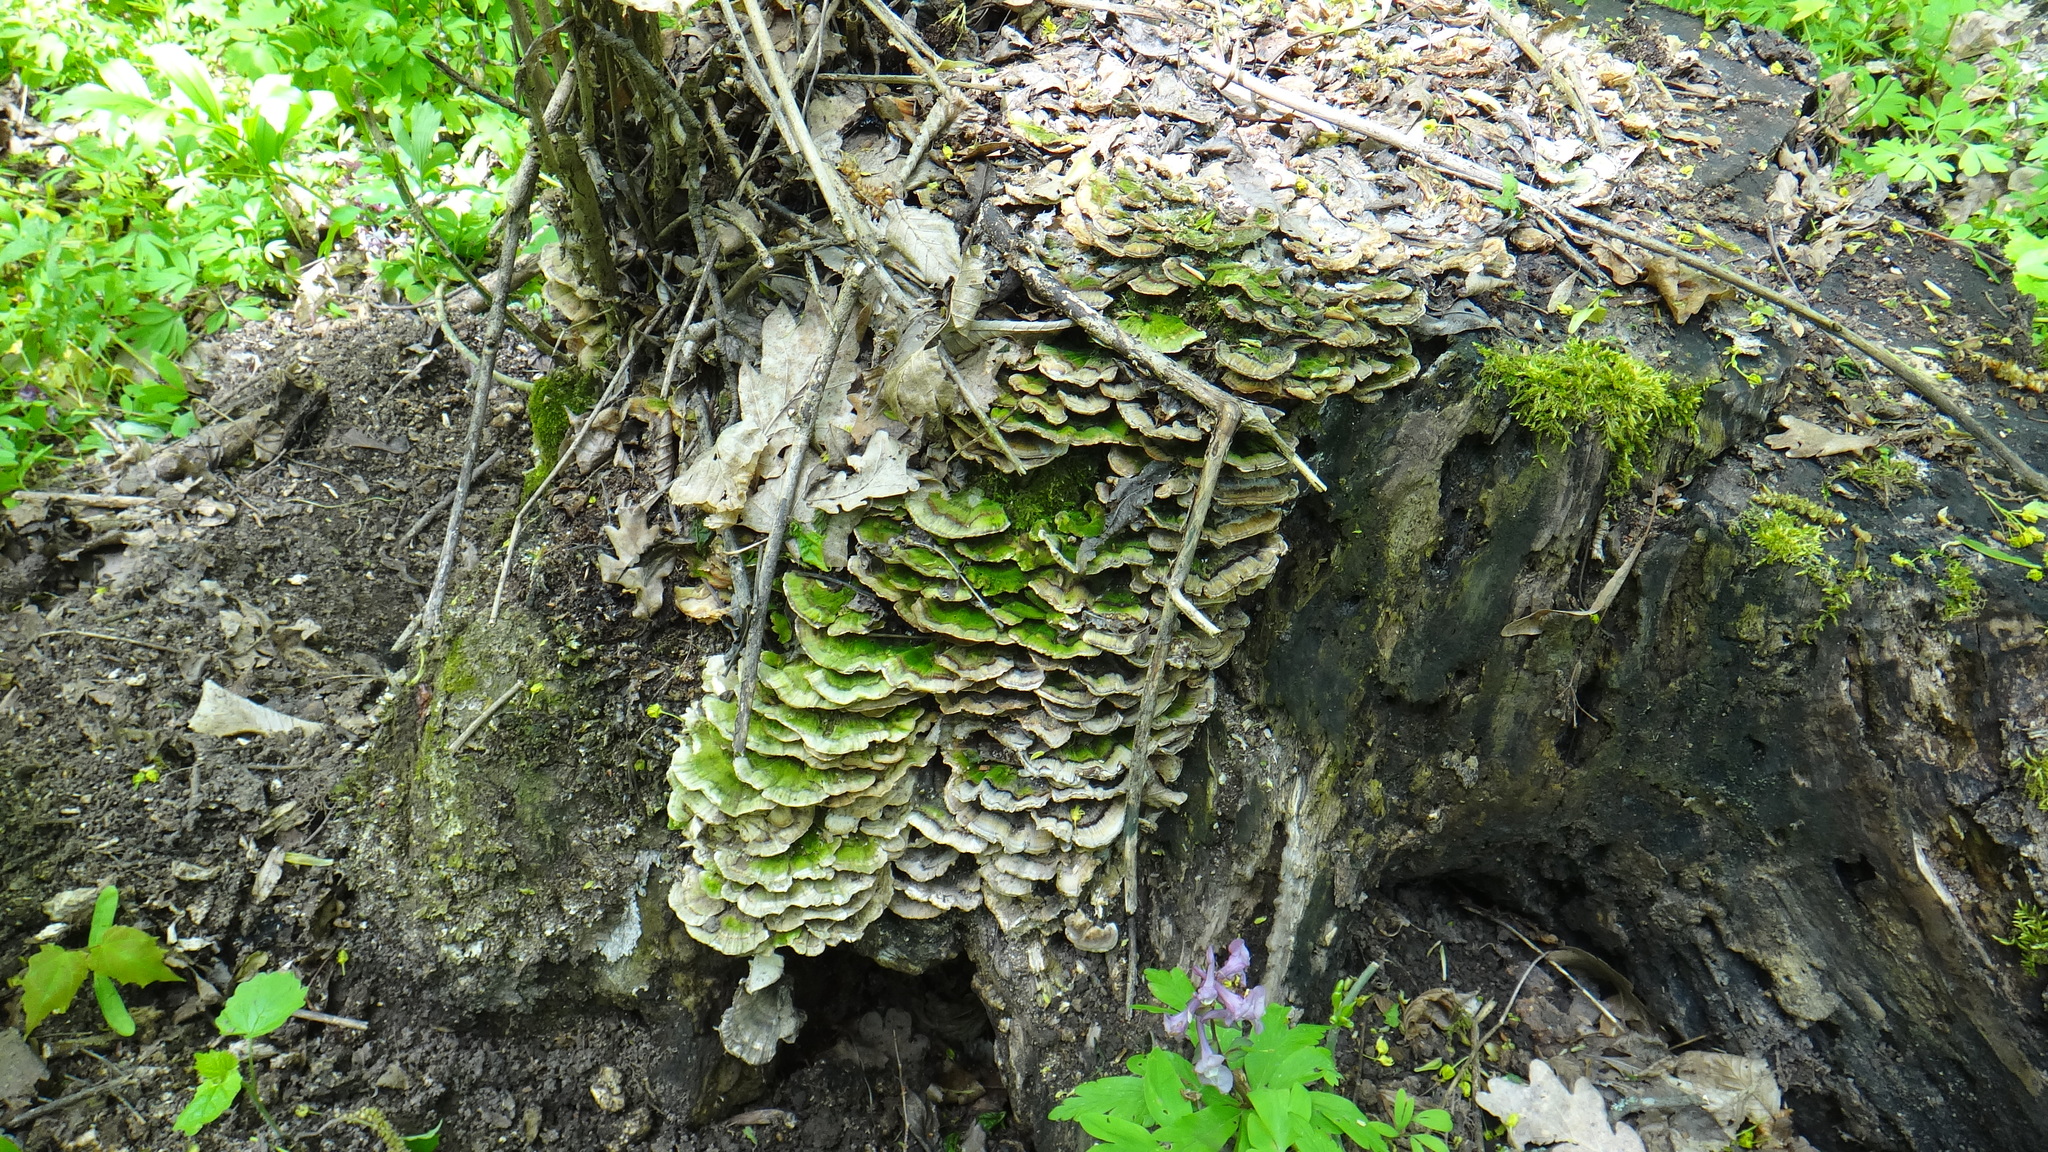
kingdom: Fungi
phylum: Basidiomycota
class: Agaricomycetes
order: Polyporales
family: Polyporaceae
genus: Trametes
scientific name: Trametes versicolor
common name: Turkeytail
